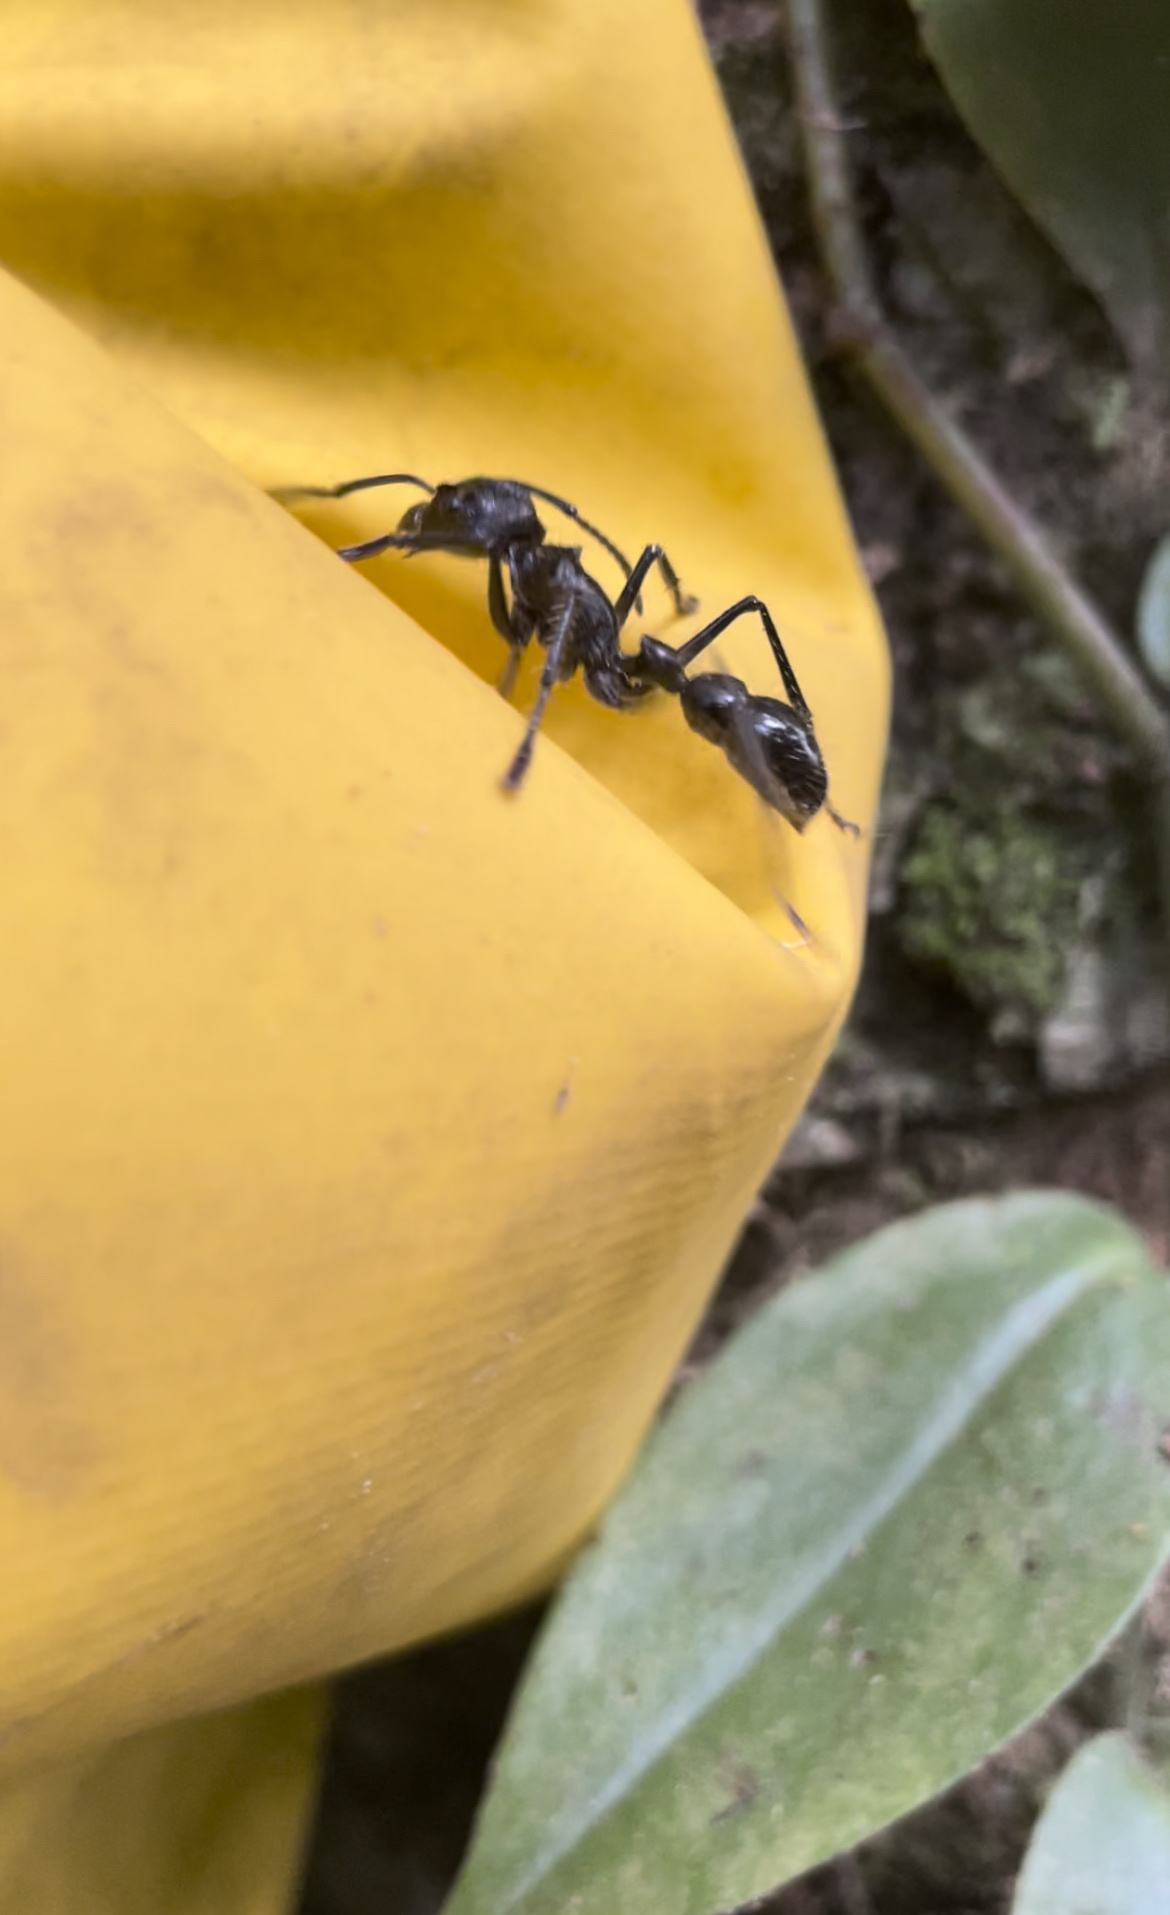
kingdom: Animalia
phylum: Arthropoda
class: Insecta
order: Hymenoptera
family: Formicidae
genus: Paraponera
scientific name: Paraponera clavata
